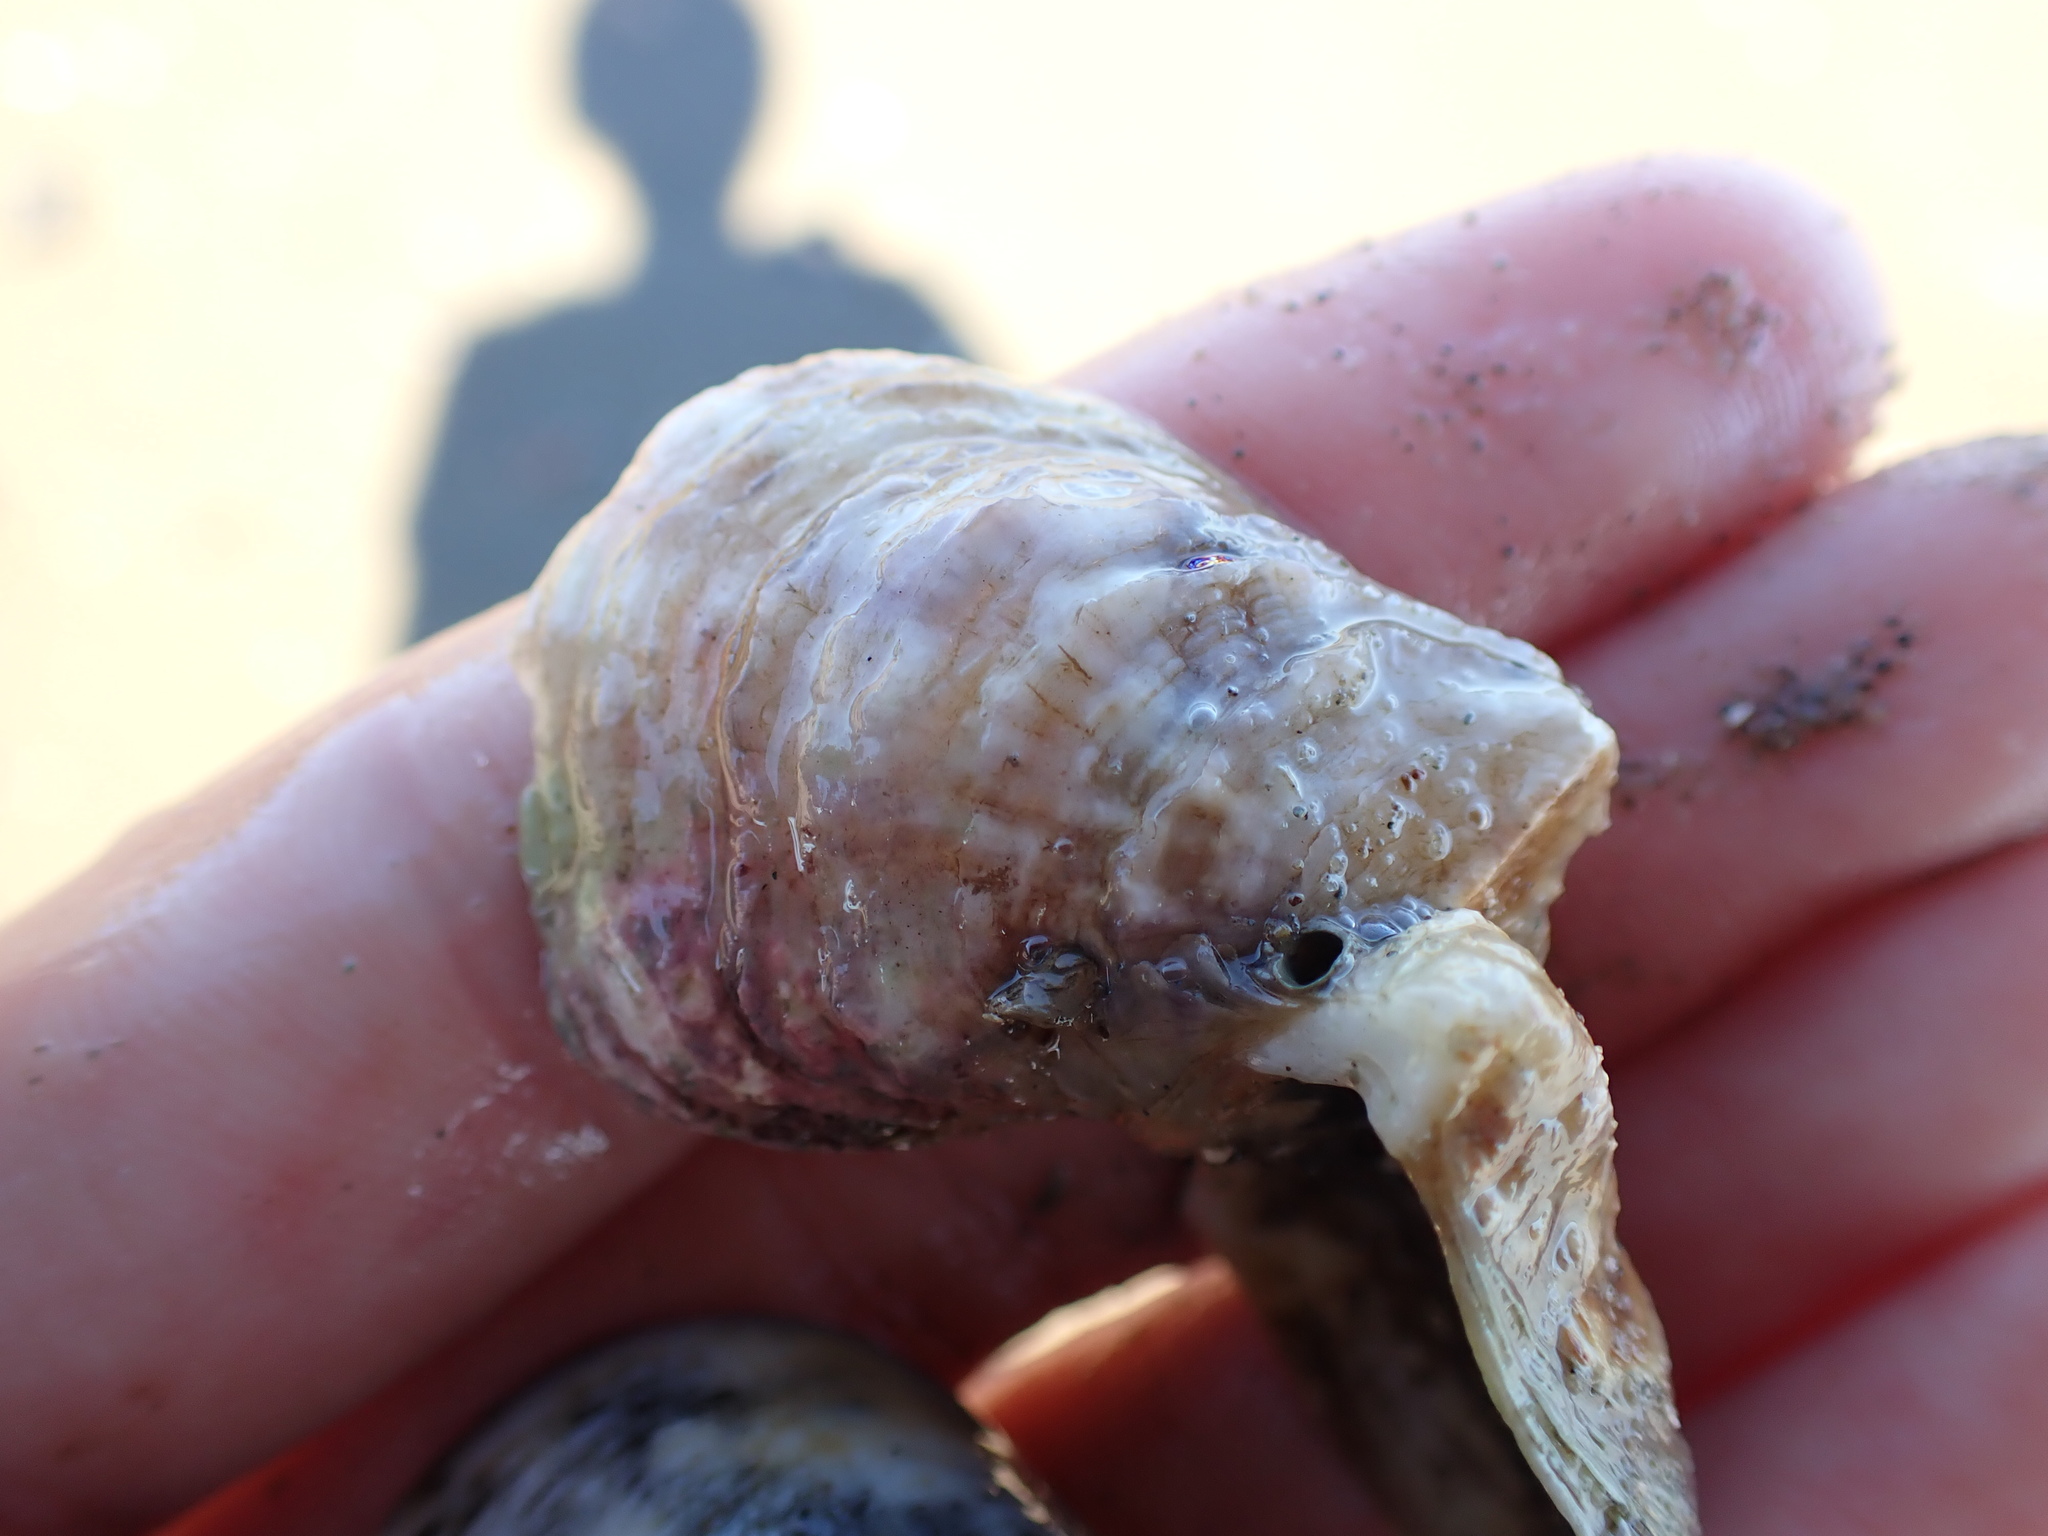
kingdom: Animalia
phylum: Mollusca
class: Bivalvia
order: Ostreida
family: Ostreidae
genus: Ostrea
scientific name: Ostrea chilensis
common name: Chilean oyster
